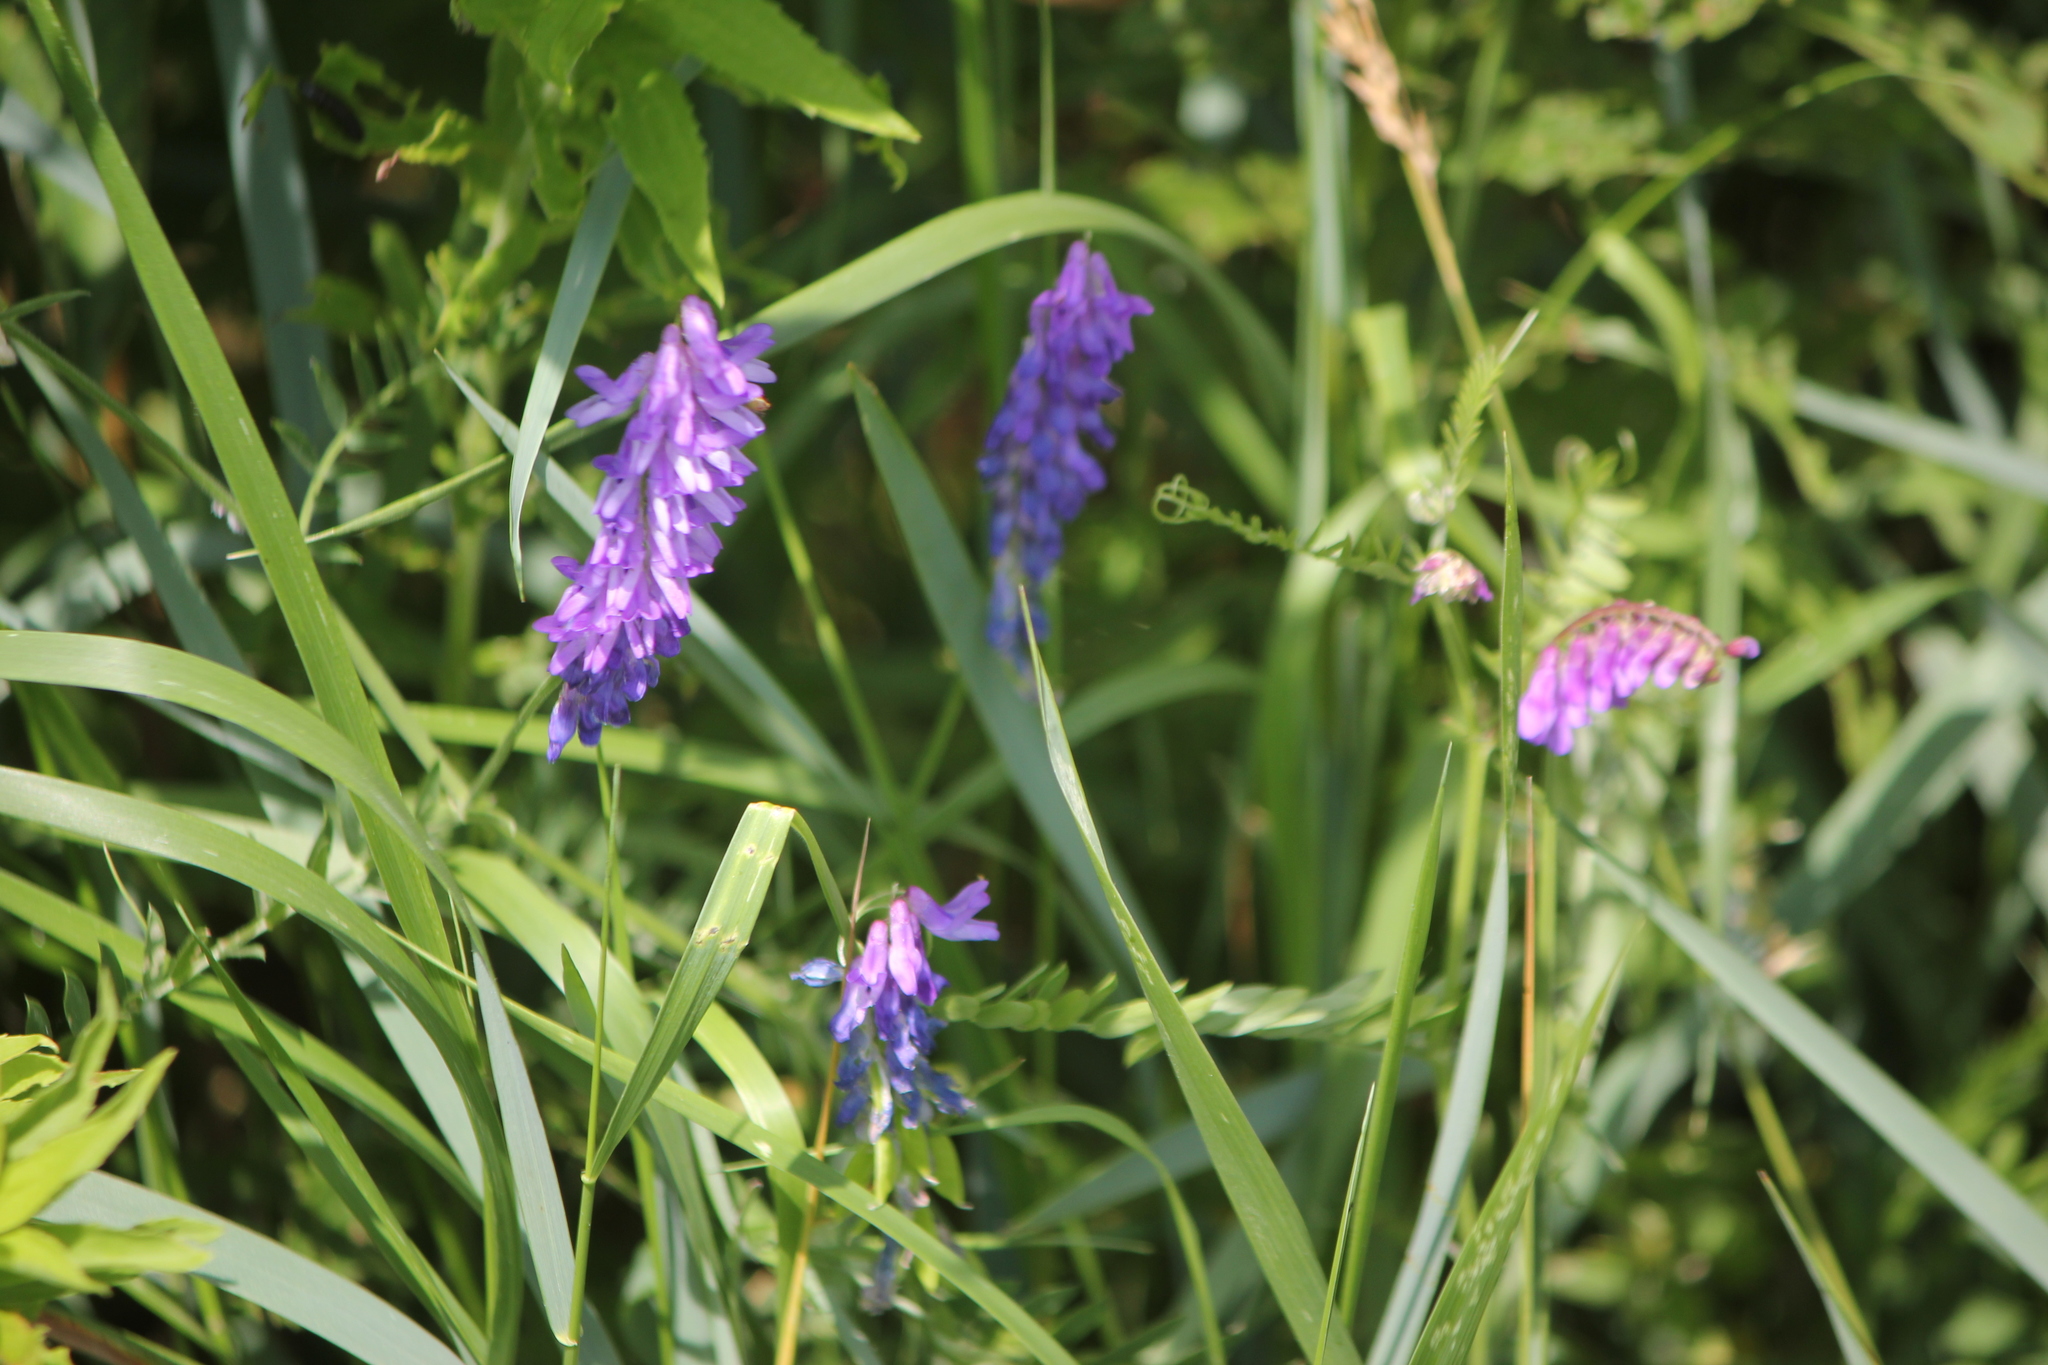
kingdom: Plantae
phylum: Tracheophyta
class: Magnoliopsida
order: Fabales
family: Fabaceae
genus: Vicia
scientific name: Vicia cracca
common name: Bird vetch
